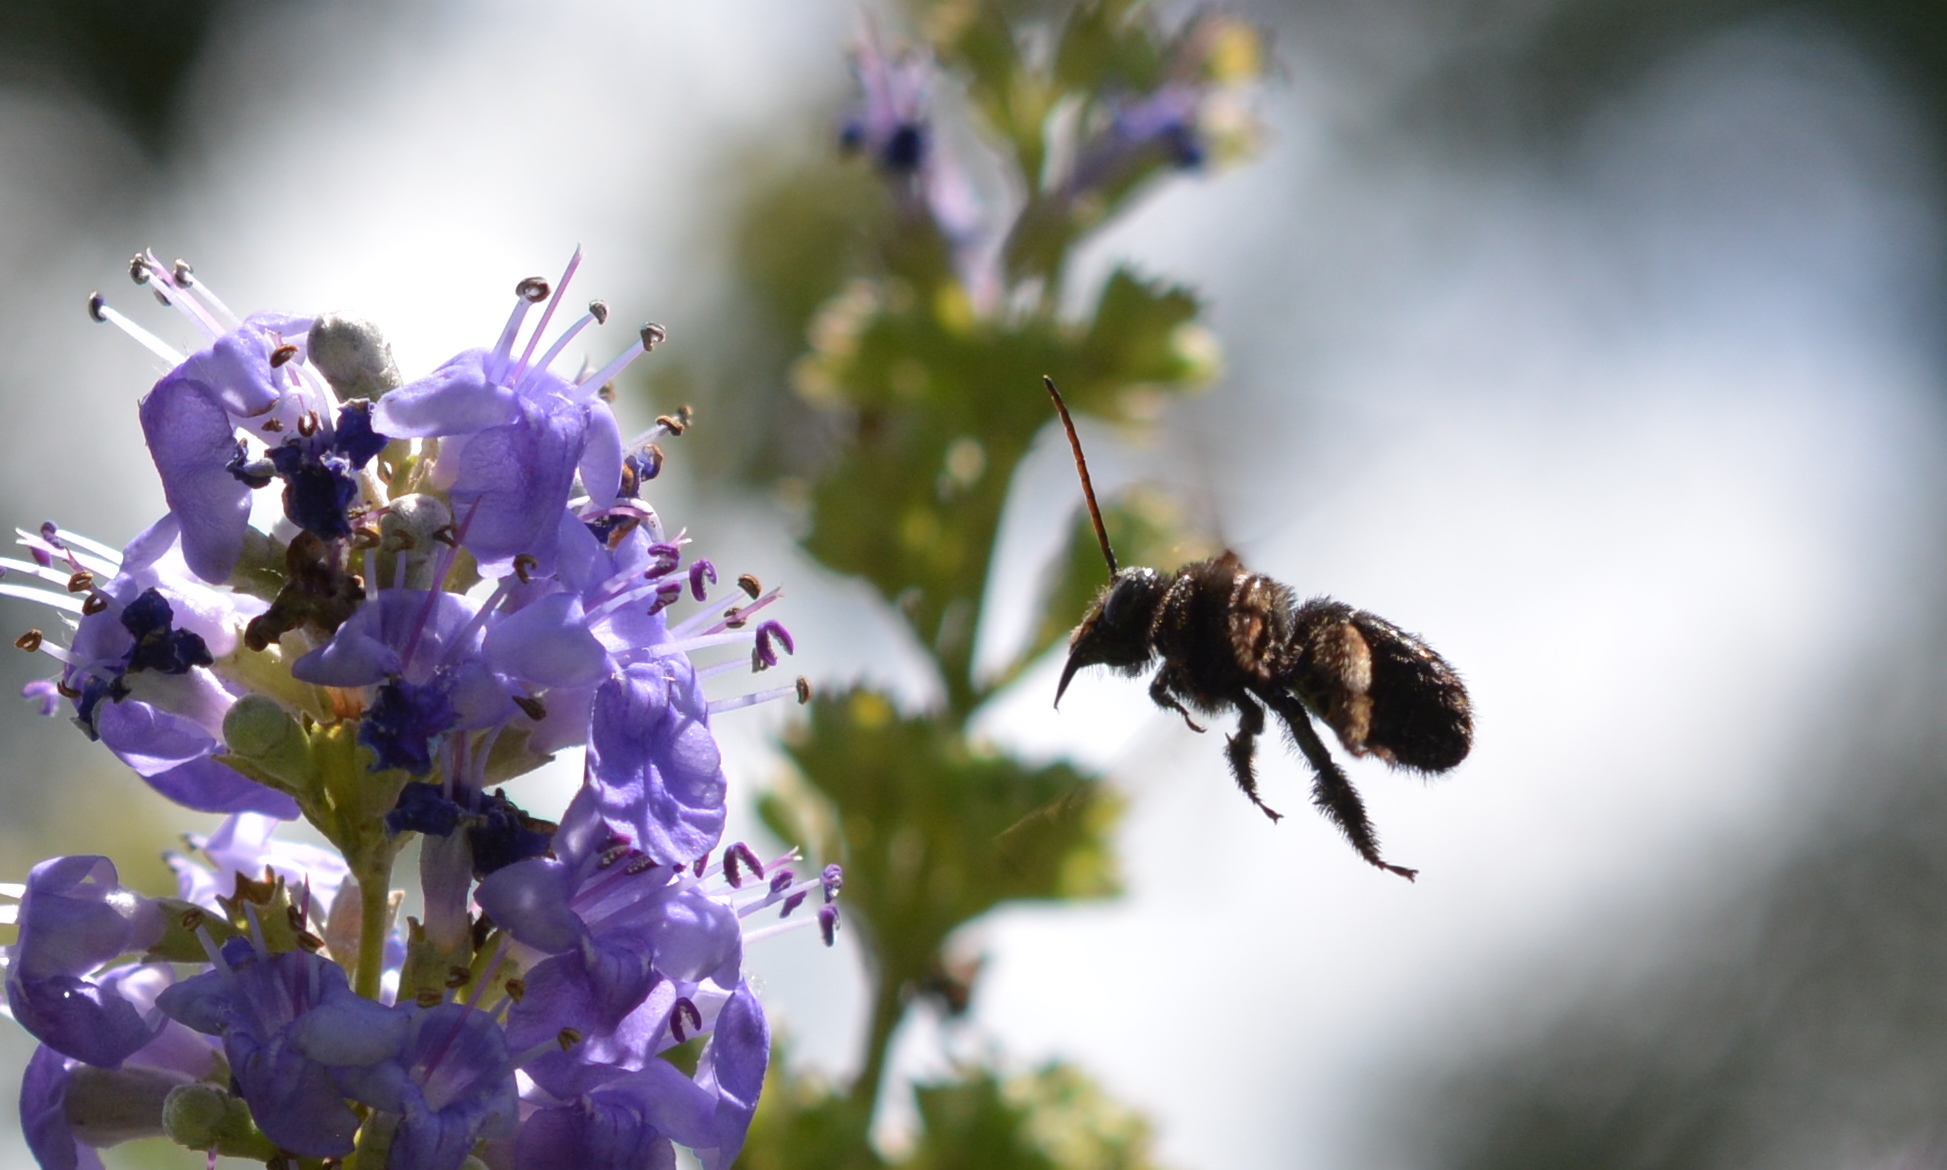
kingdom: Animalia
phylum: Arthropoda
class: Insecta
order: Hymenoptera
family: Apidae
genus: Melissodes
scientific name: Melissodes bimaculatus
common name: Two-spotted long-horned bee
